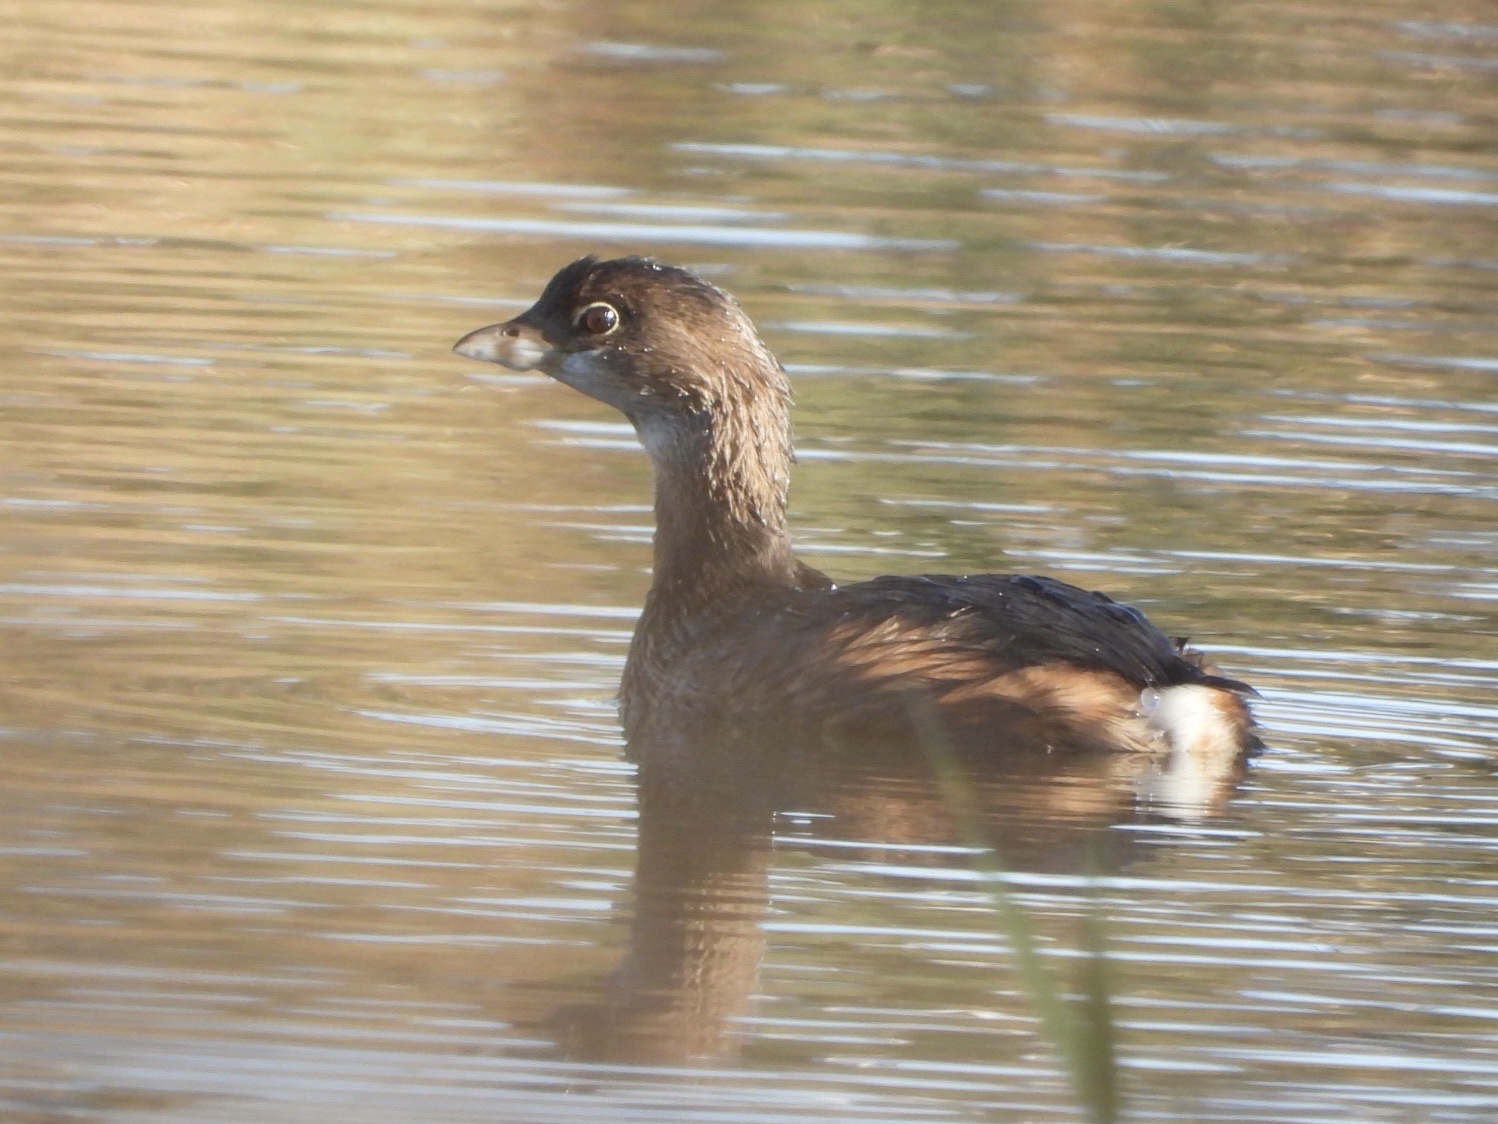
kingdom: Animalia
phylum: Chordata
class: Aves
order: Podicipediformes
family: Podicipedidae
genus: Podilymbus
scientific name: Podilymbus podiceps
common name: Pied-billed grebe
